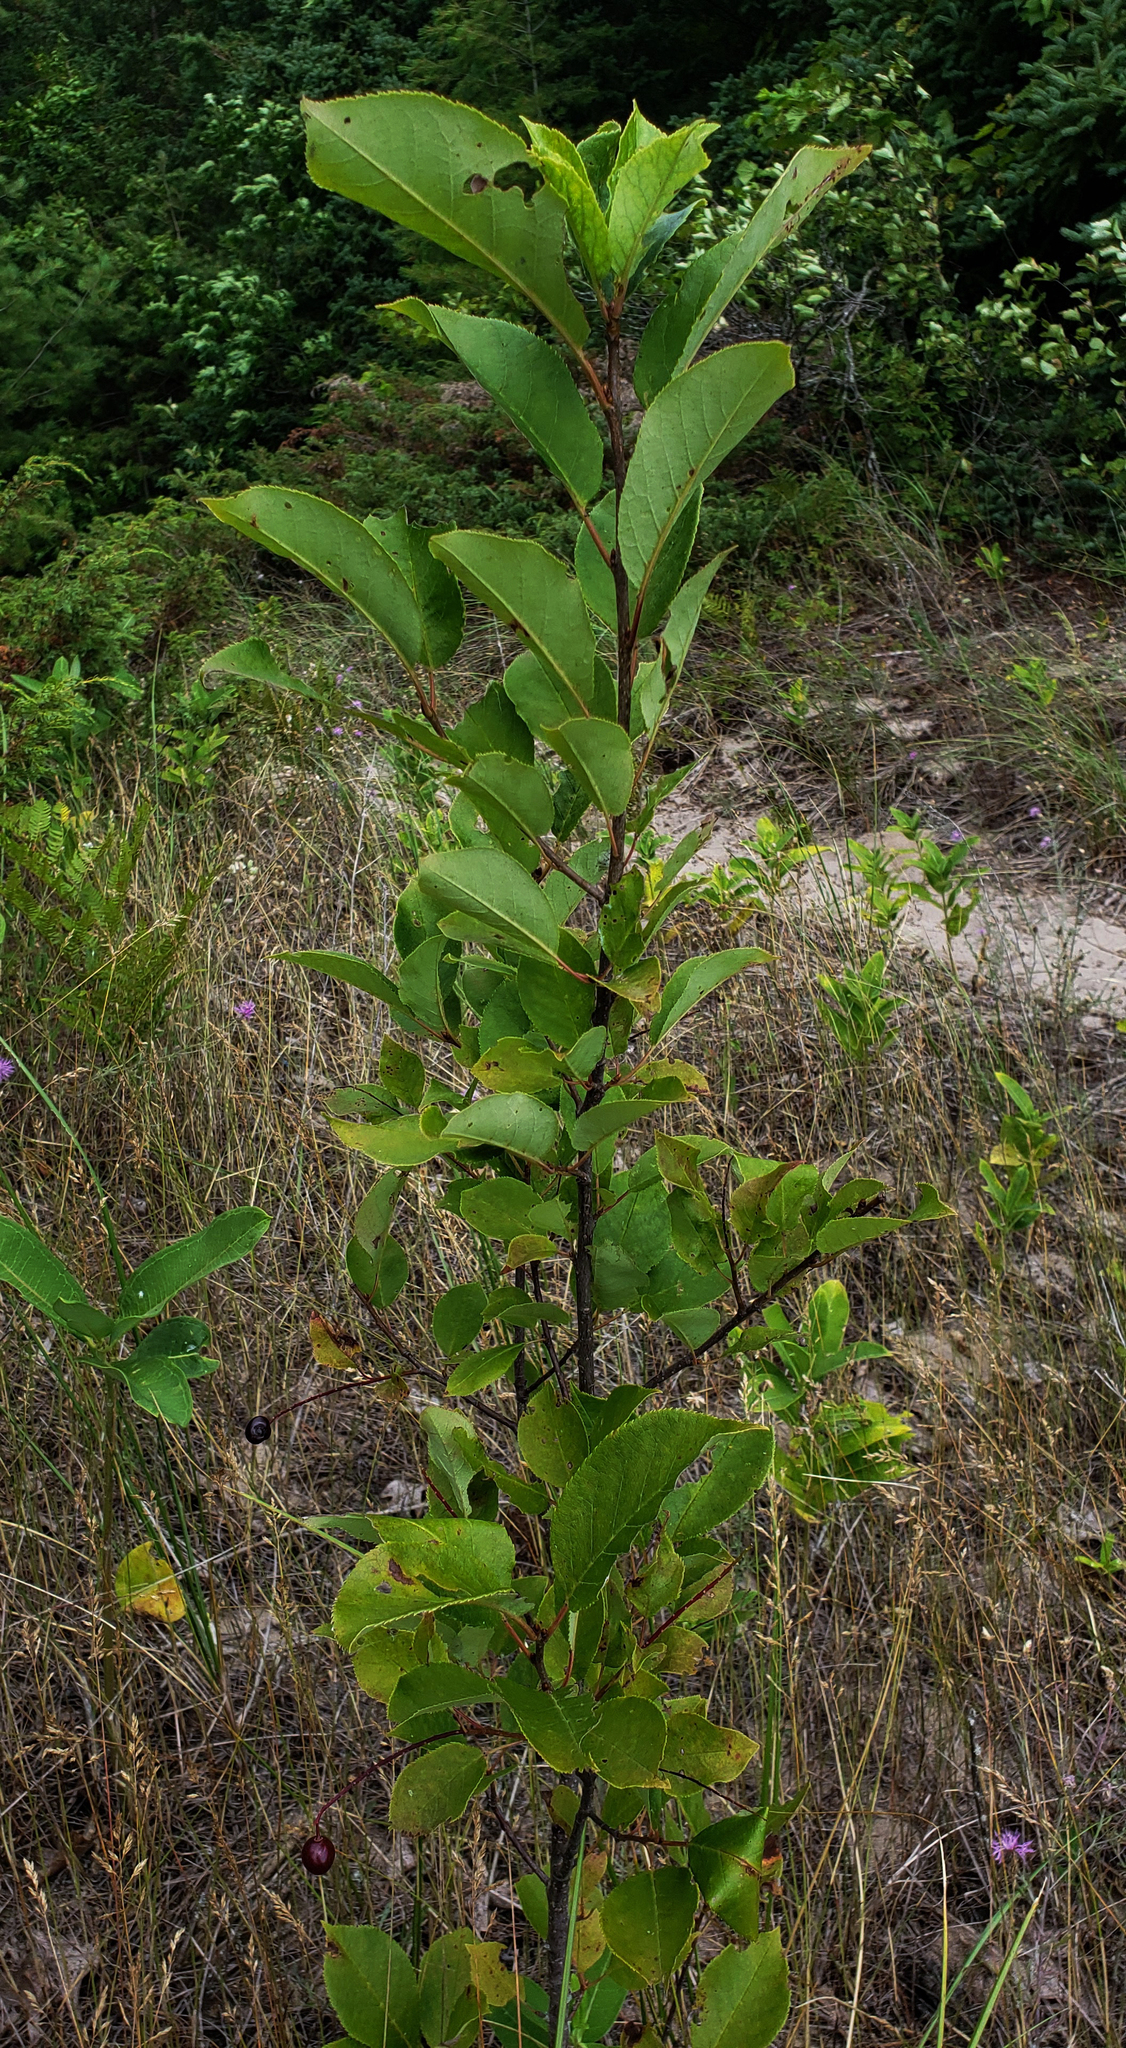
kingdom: Plantae
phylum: Tracheophyta
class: Magnoliopsida
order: Rosales
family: Rosaceae
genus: Prunus
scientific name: Prunus virginiana
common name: Chokecherry
